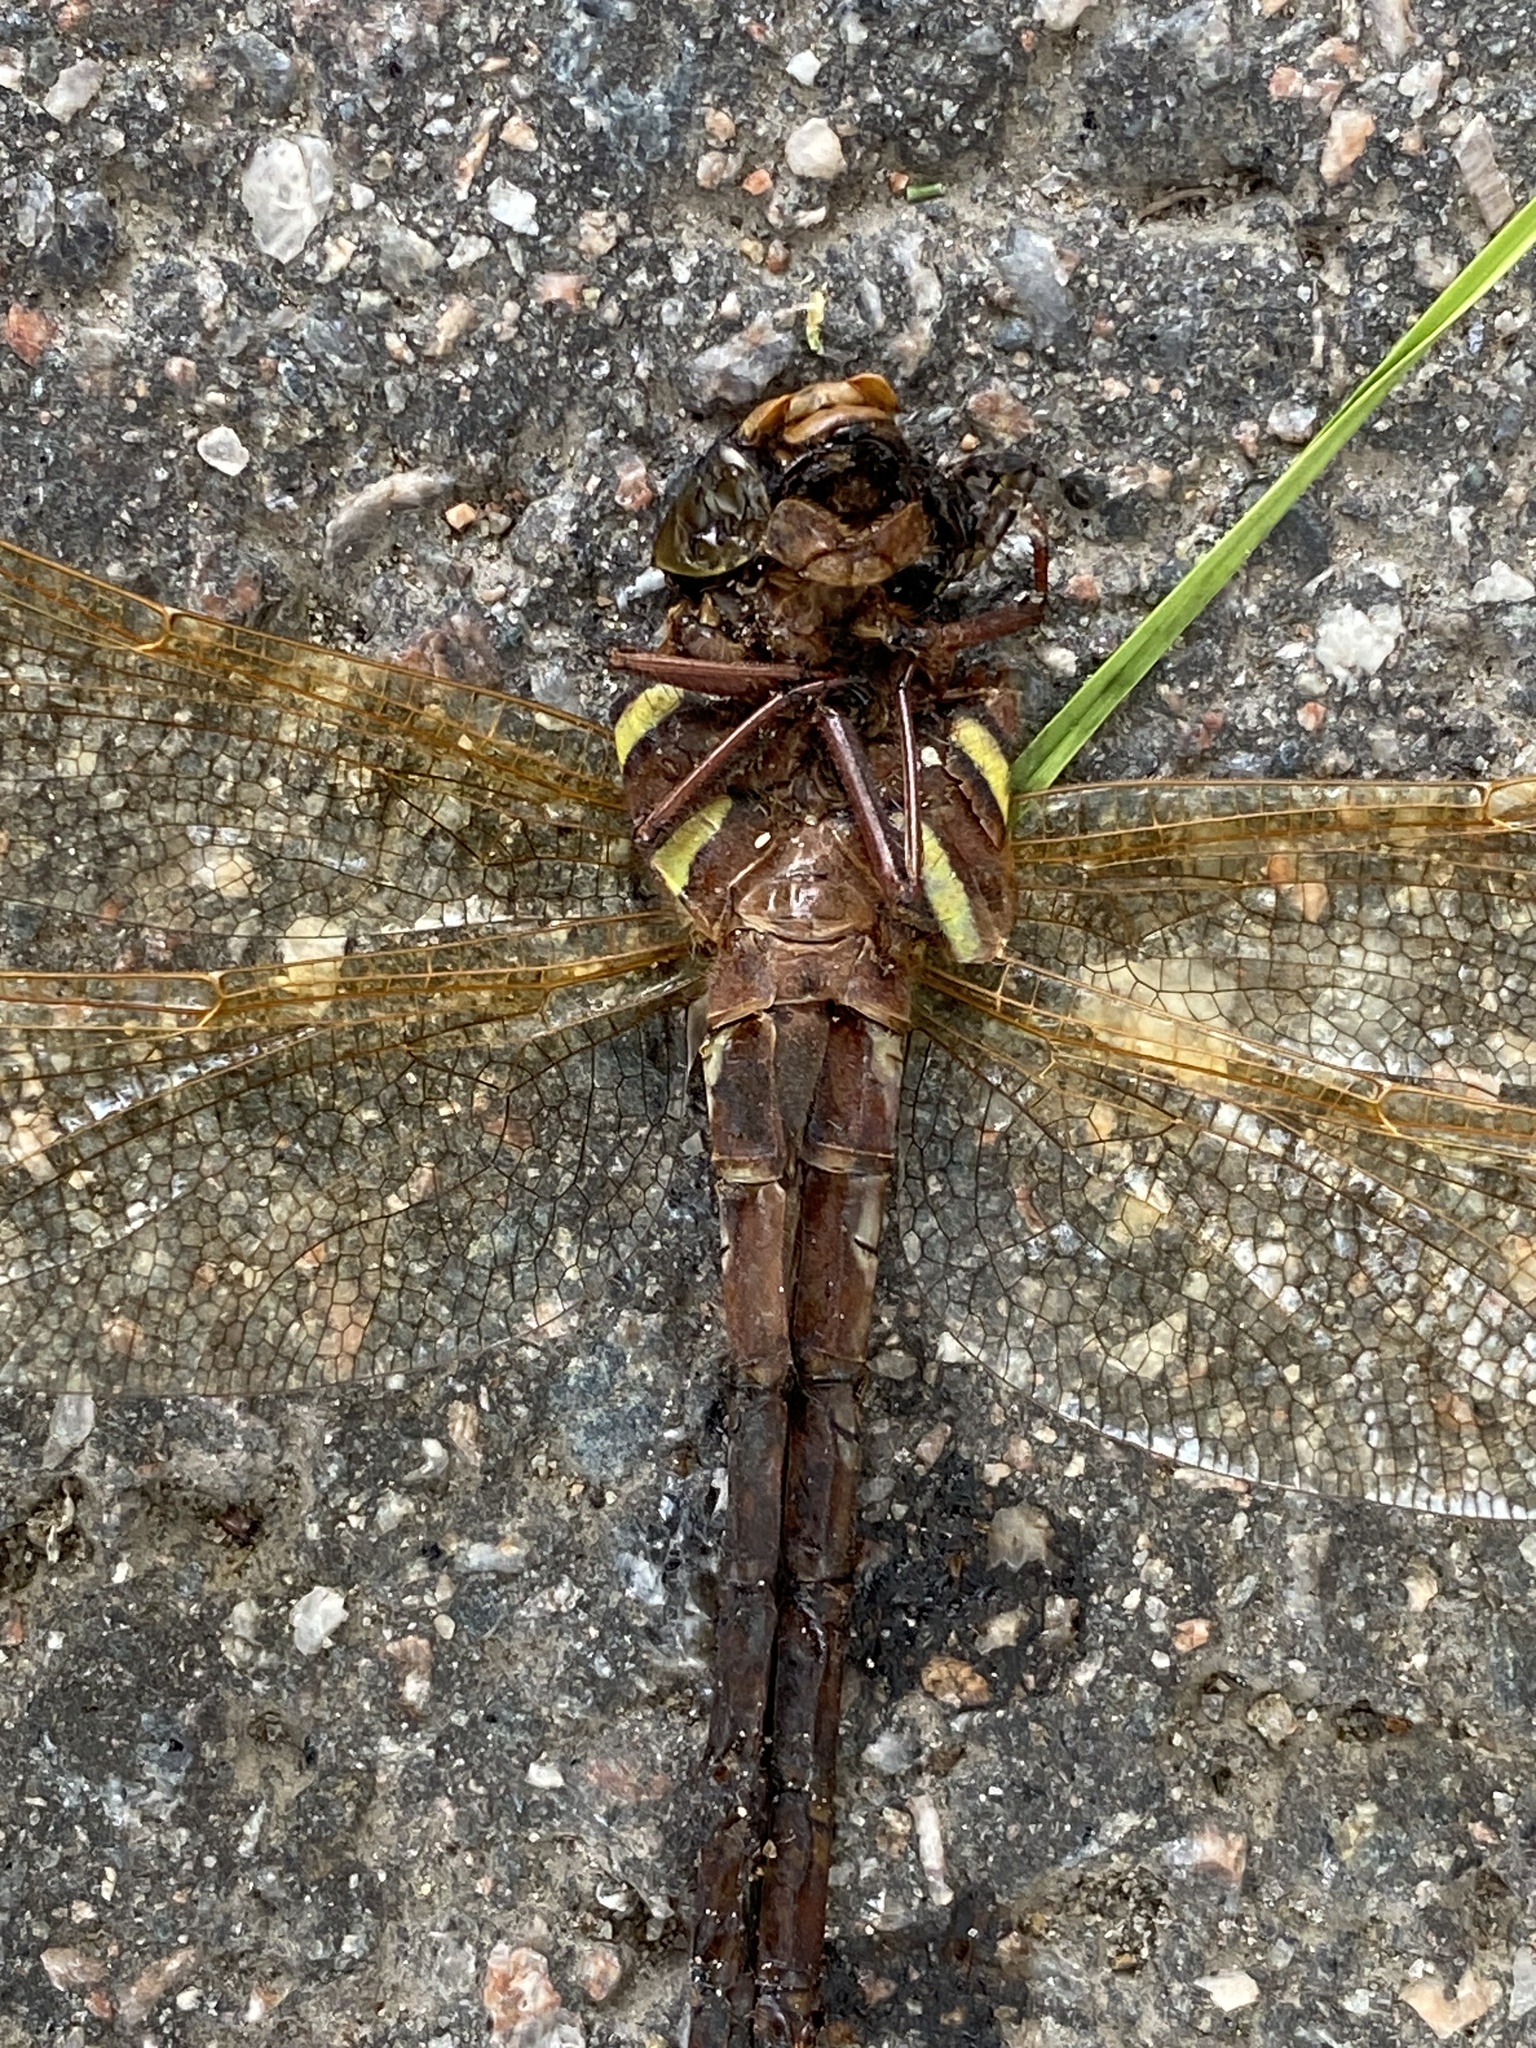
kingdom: Animalia
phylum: Arthropoda
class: Insecta
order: Odonata
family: Aeshnidae
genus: Aeshna
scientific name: Aeshna grandis
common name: Brown hawker
